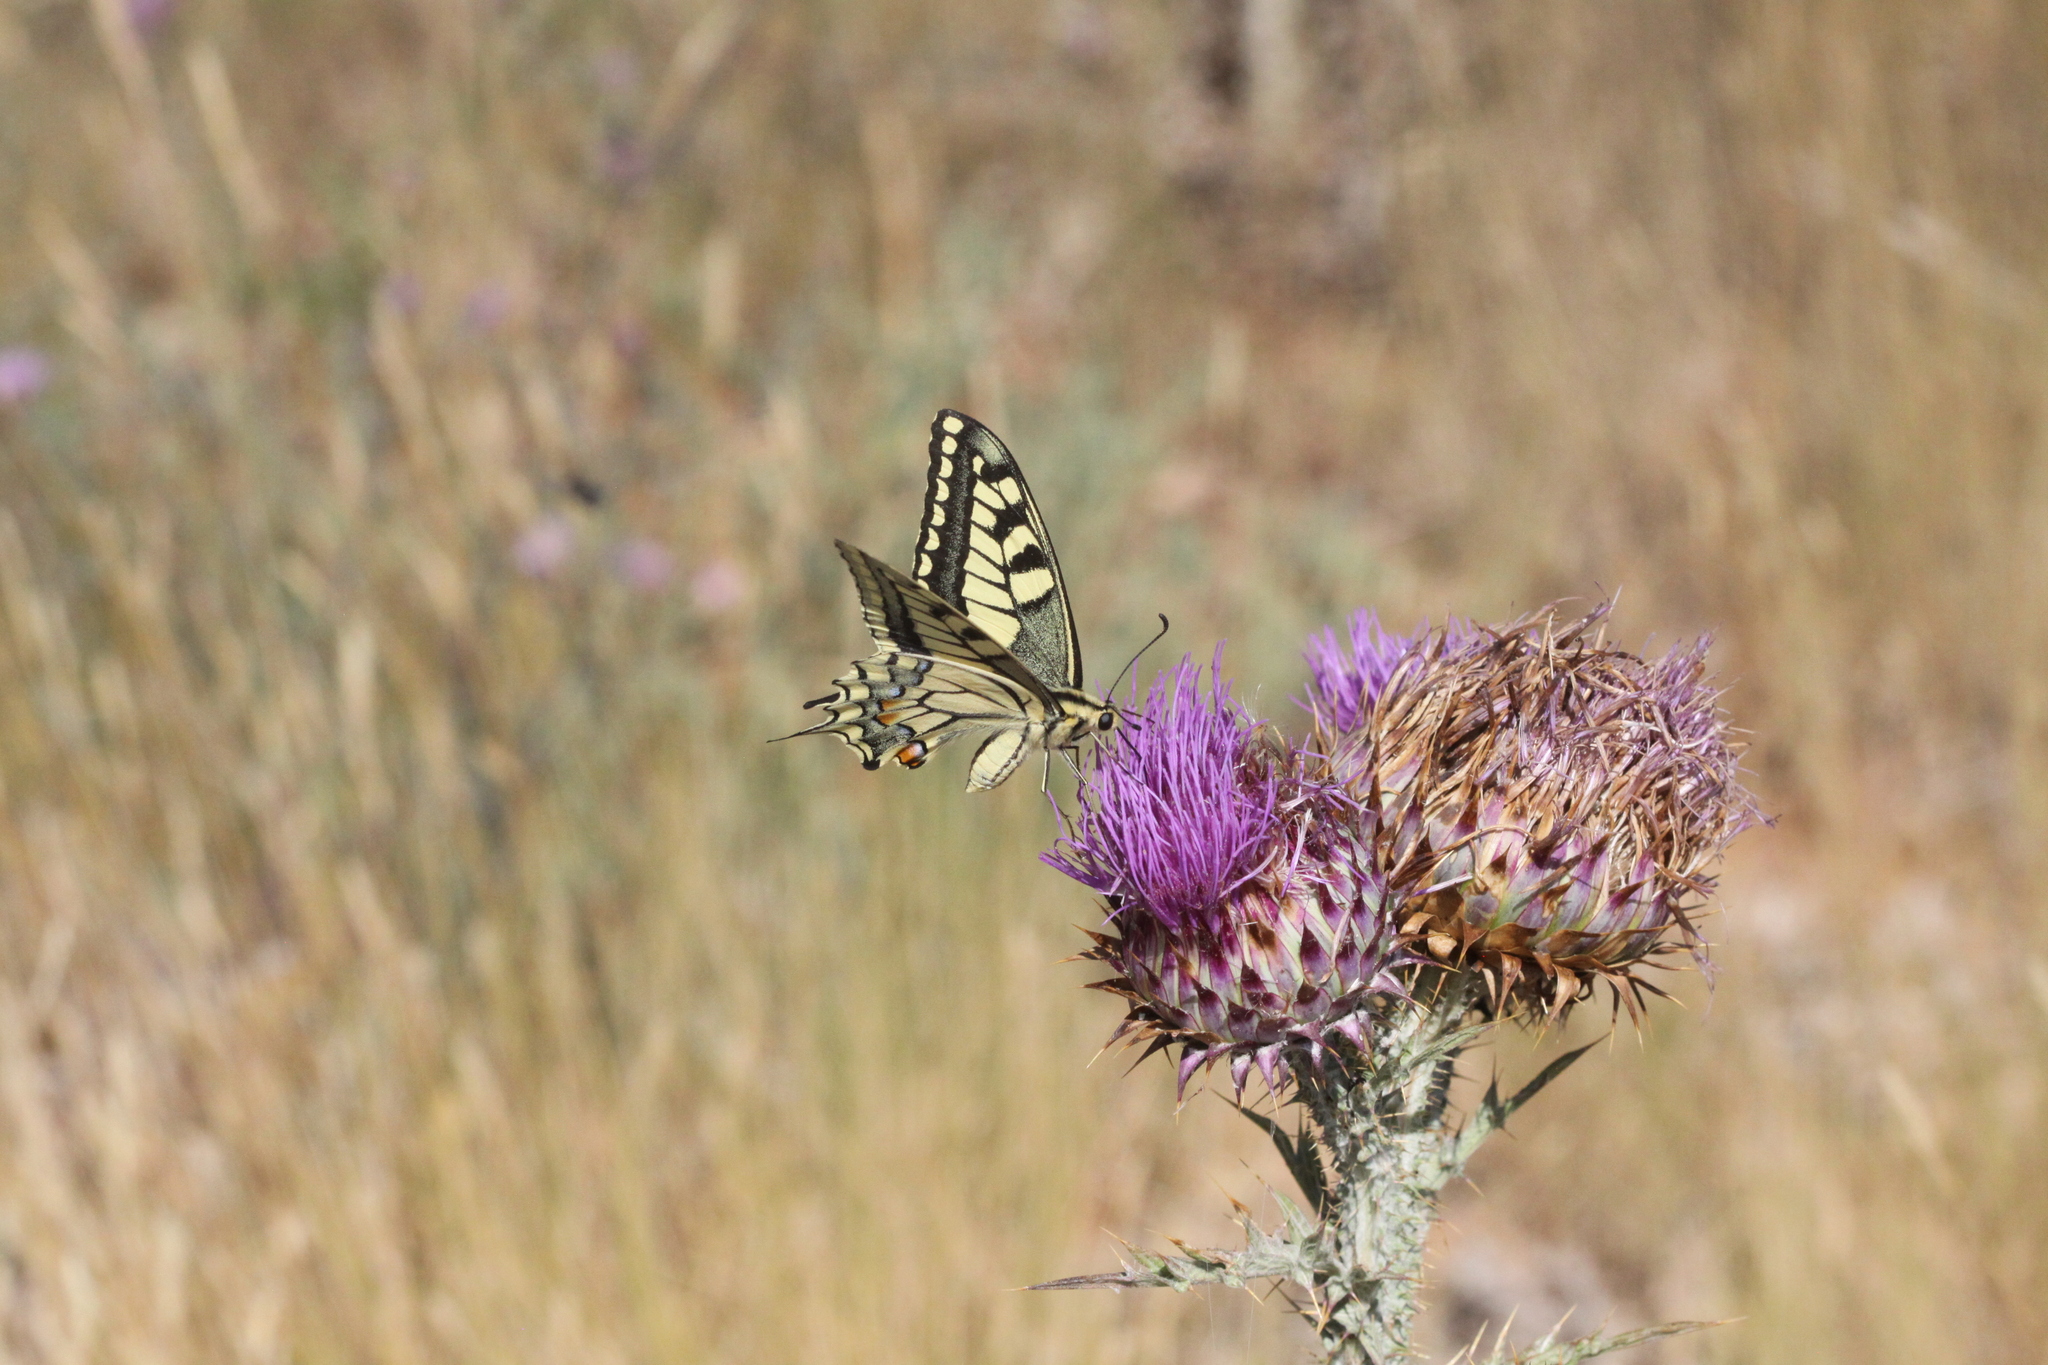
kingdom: Animalia
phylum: Arthropoda
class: Insecta
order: Lepidoptera
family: Papilionidae
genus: Papilio
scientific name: Papilio machaon
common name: Swallowtail
